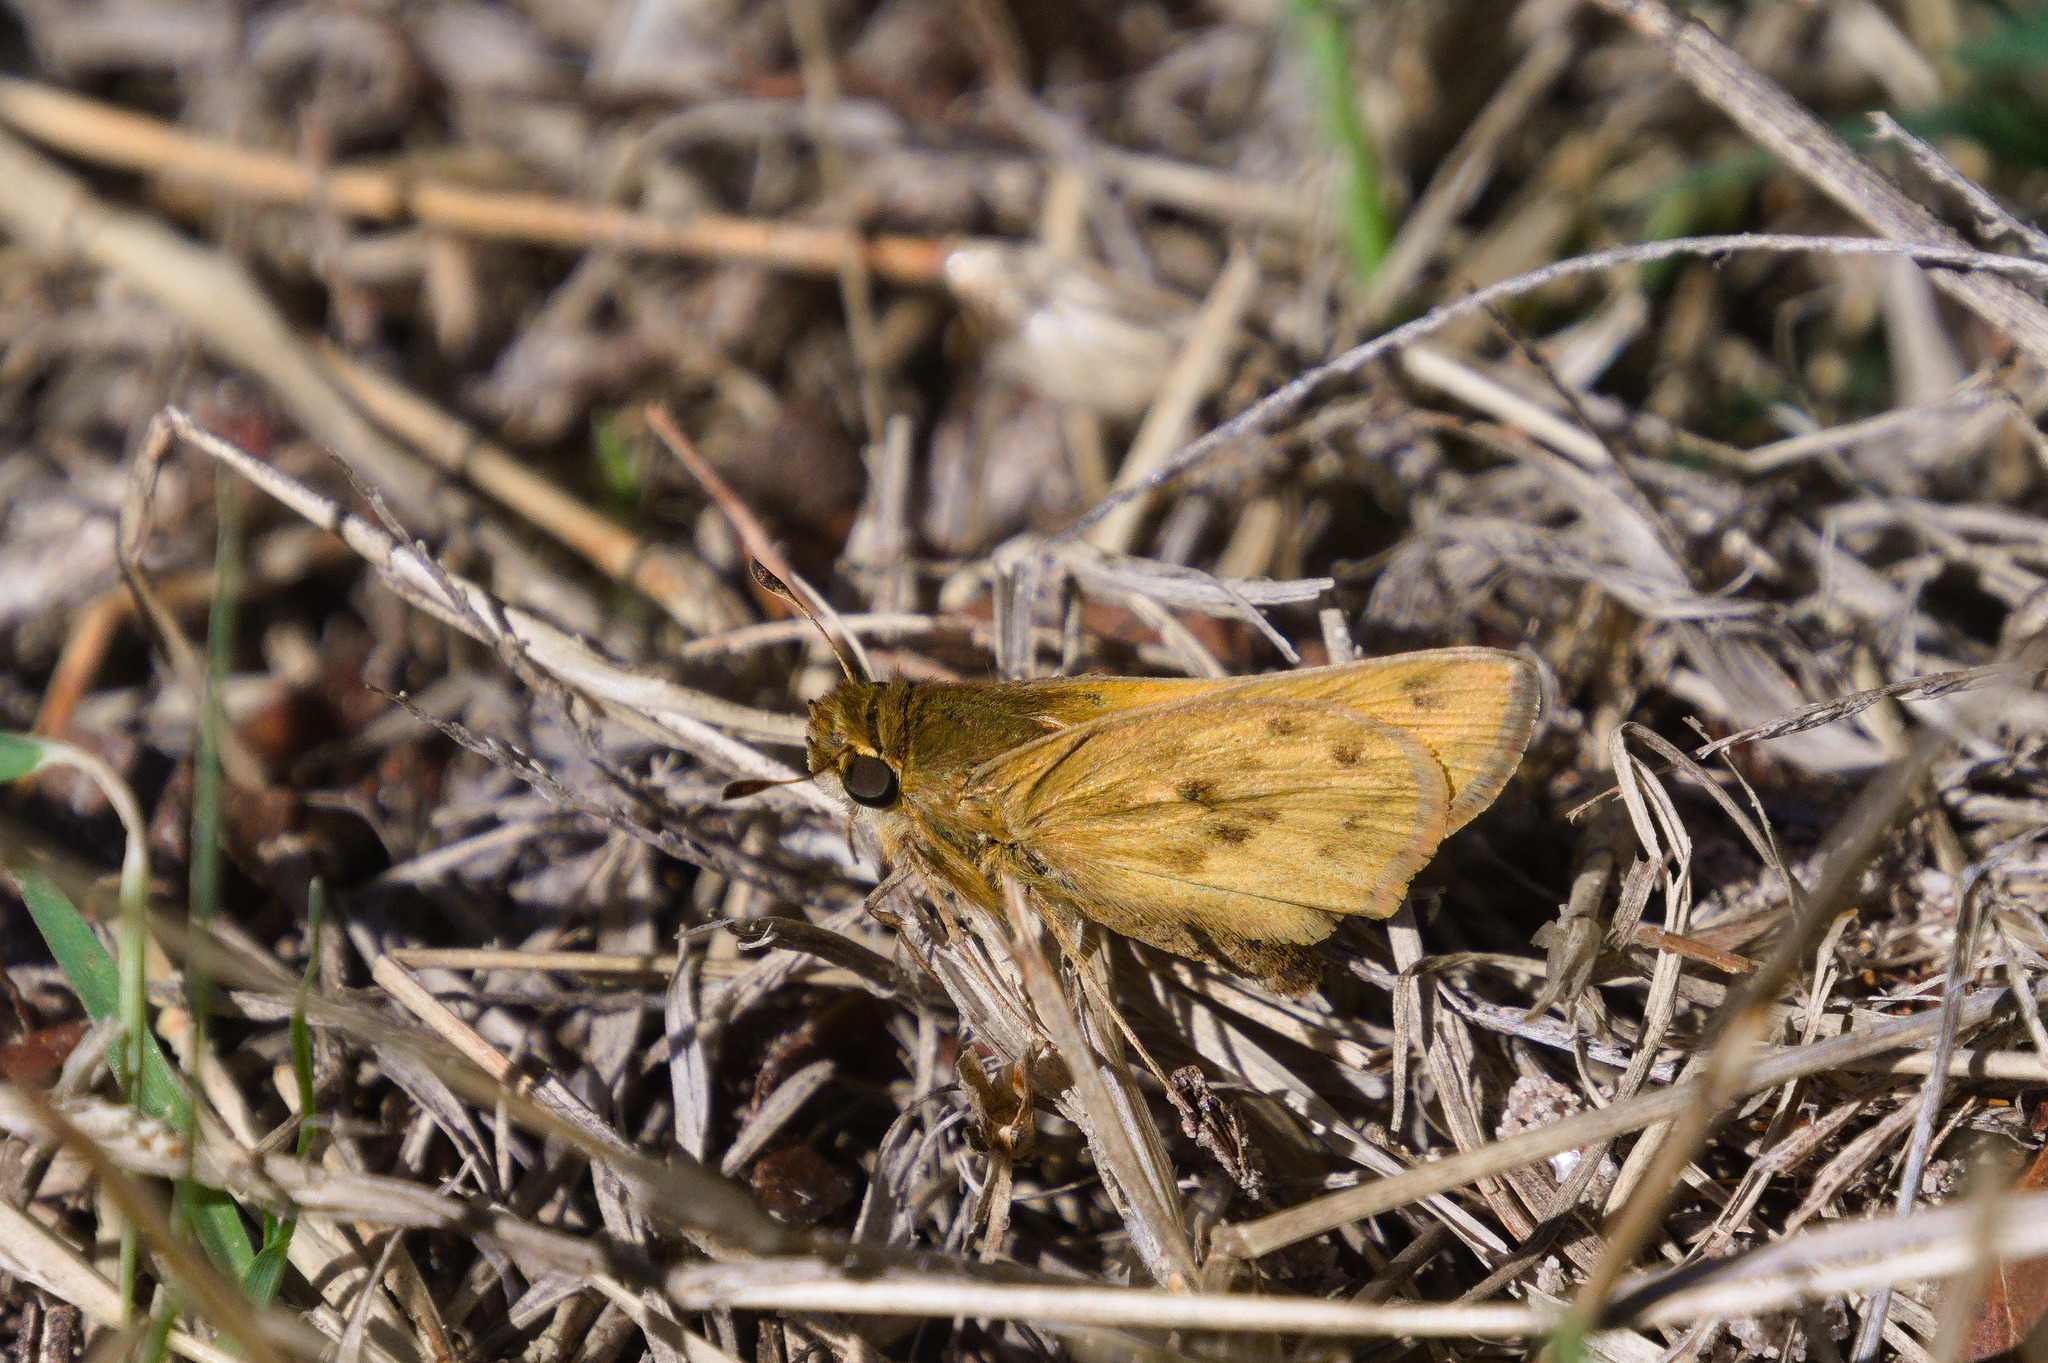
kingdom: Animalia
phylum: Arthropoda
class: Insecta
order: Lepidoptera
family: Hesperiidae
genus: Hylephila
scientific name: Hylephila phyleus
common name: Fiery skipper
